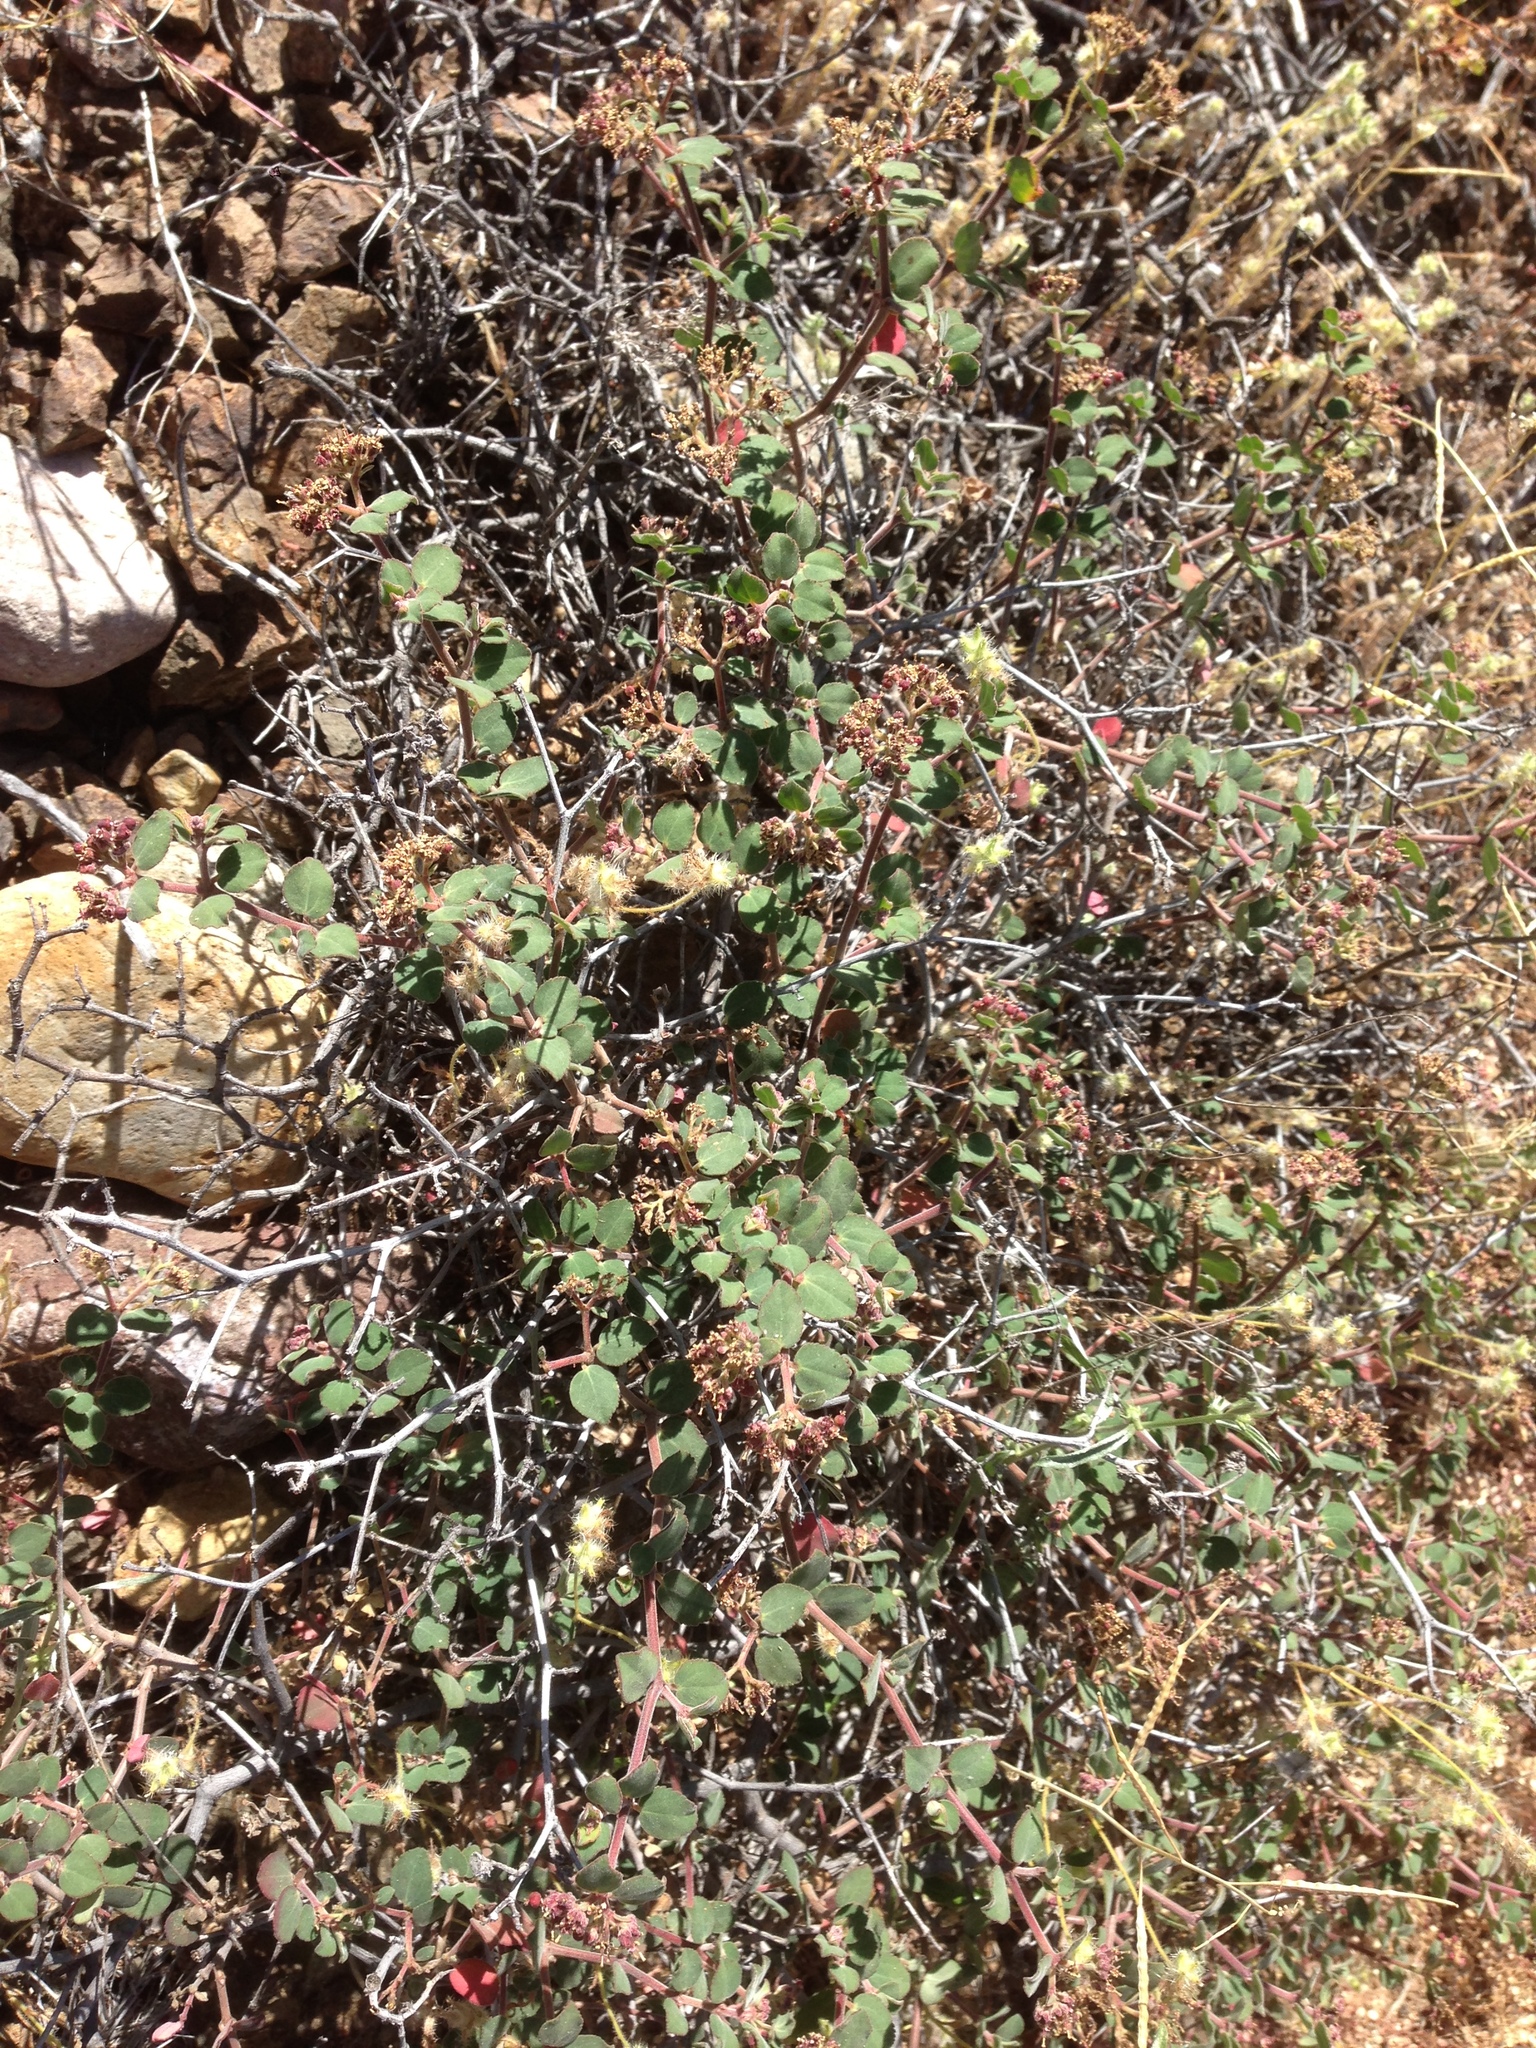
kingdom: Plantae
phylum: Tracheophyta
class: Magnoliopsida
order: Malpighiales
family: Euphorbiaceae
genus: Euphorbia
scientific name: Euphorbia tomentulosa
